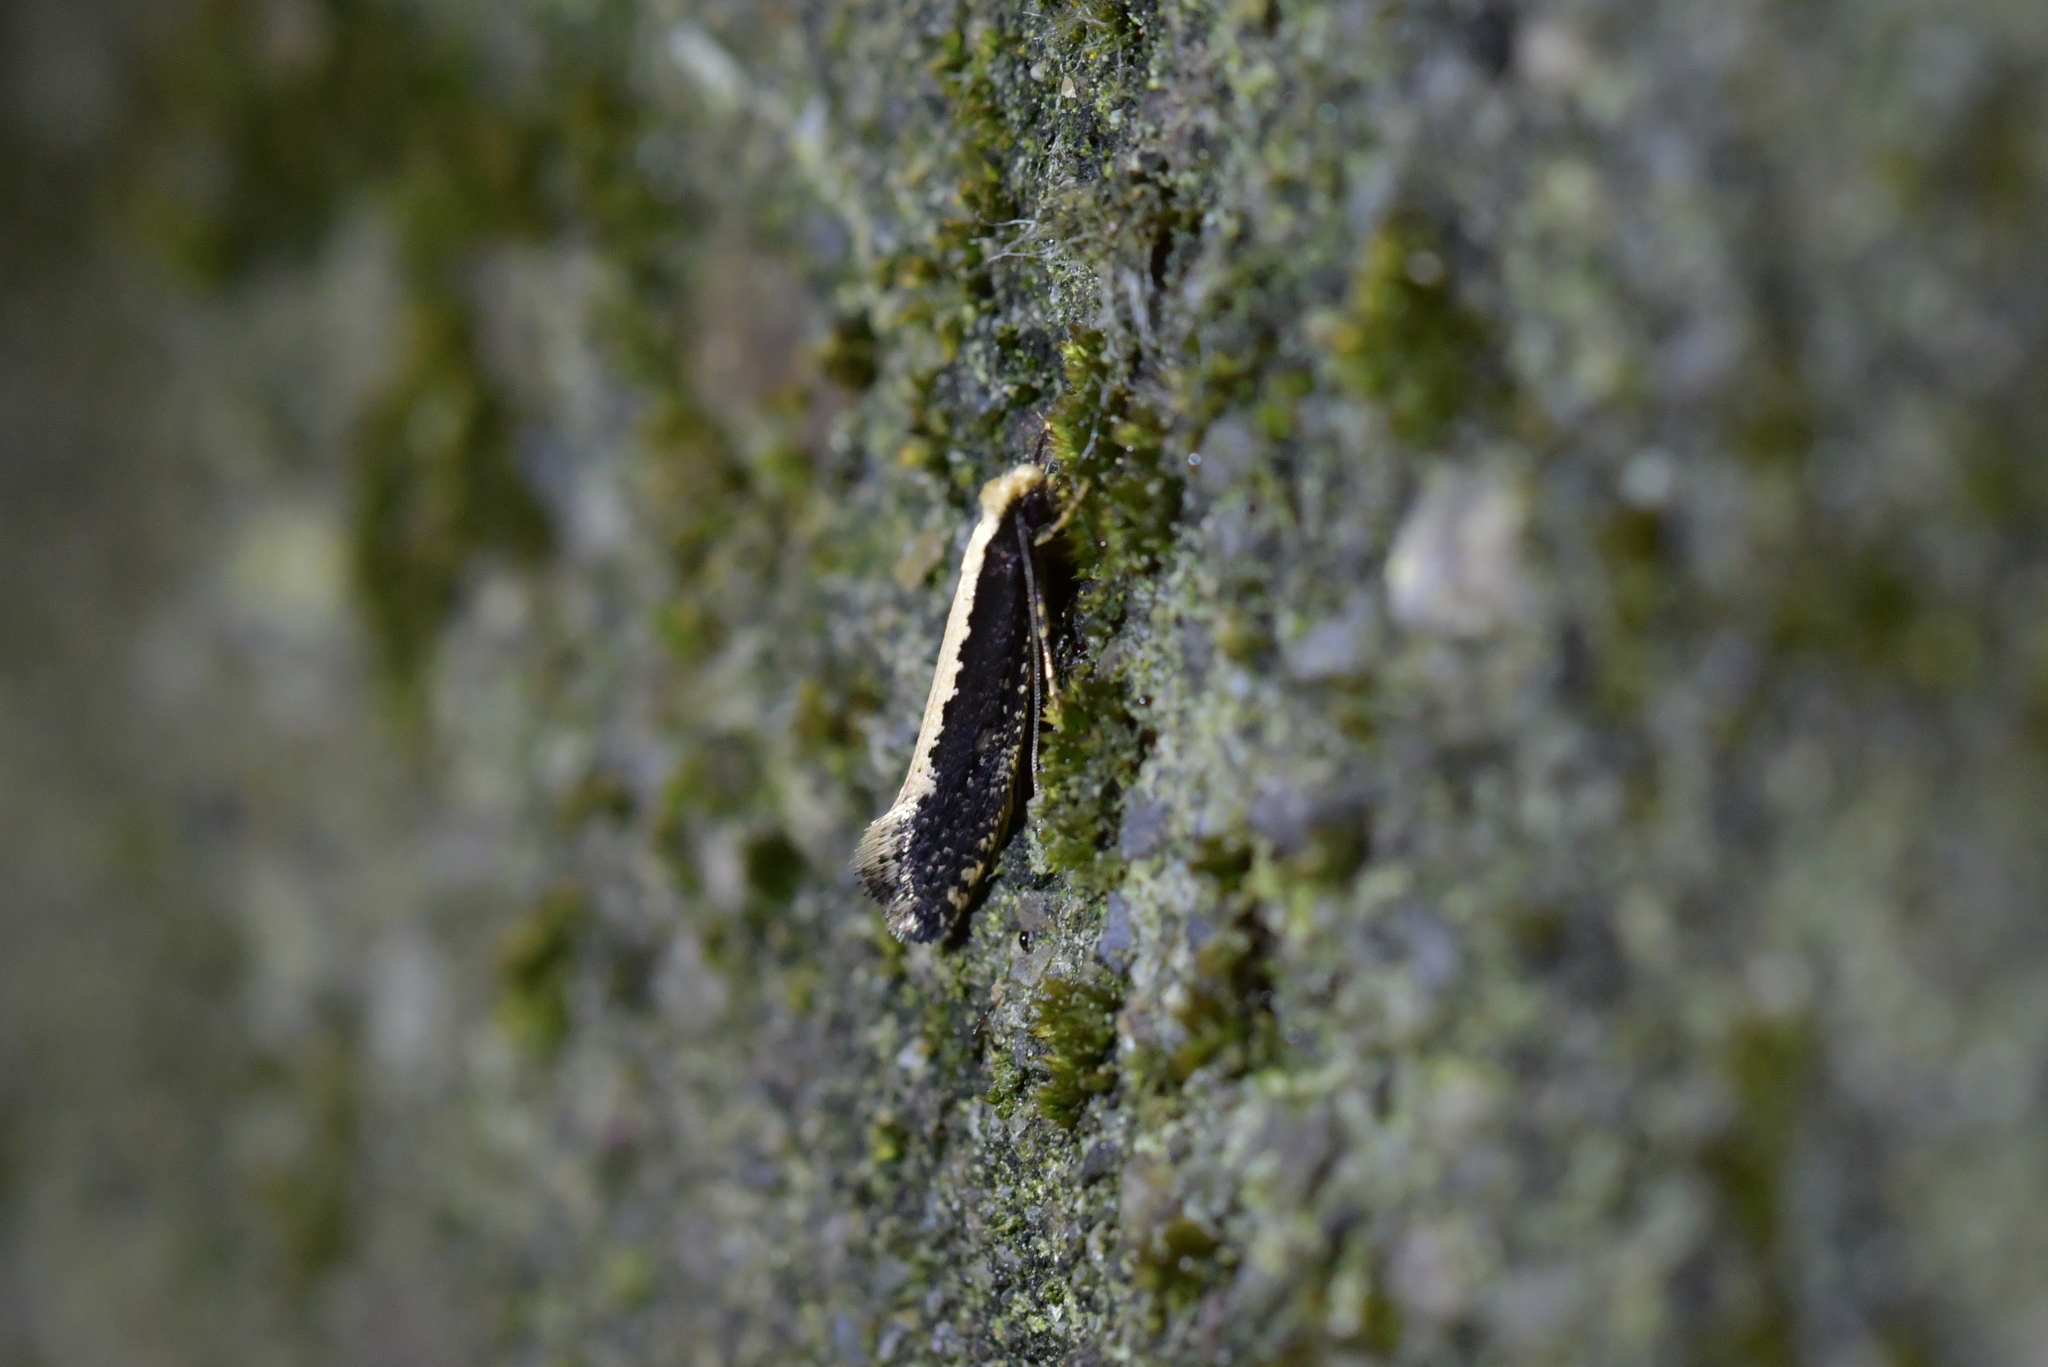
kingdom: Animalia
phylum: Arthropoda
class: Insecta
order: Lepidoptera
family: Tineidae
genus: Monopis
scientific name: Monopis ethelella
